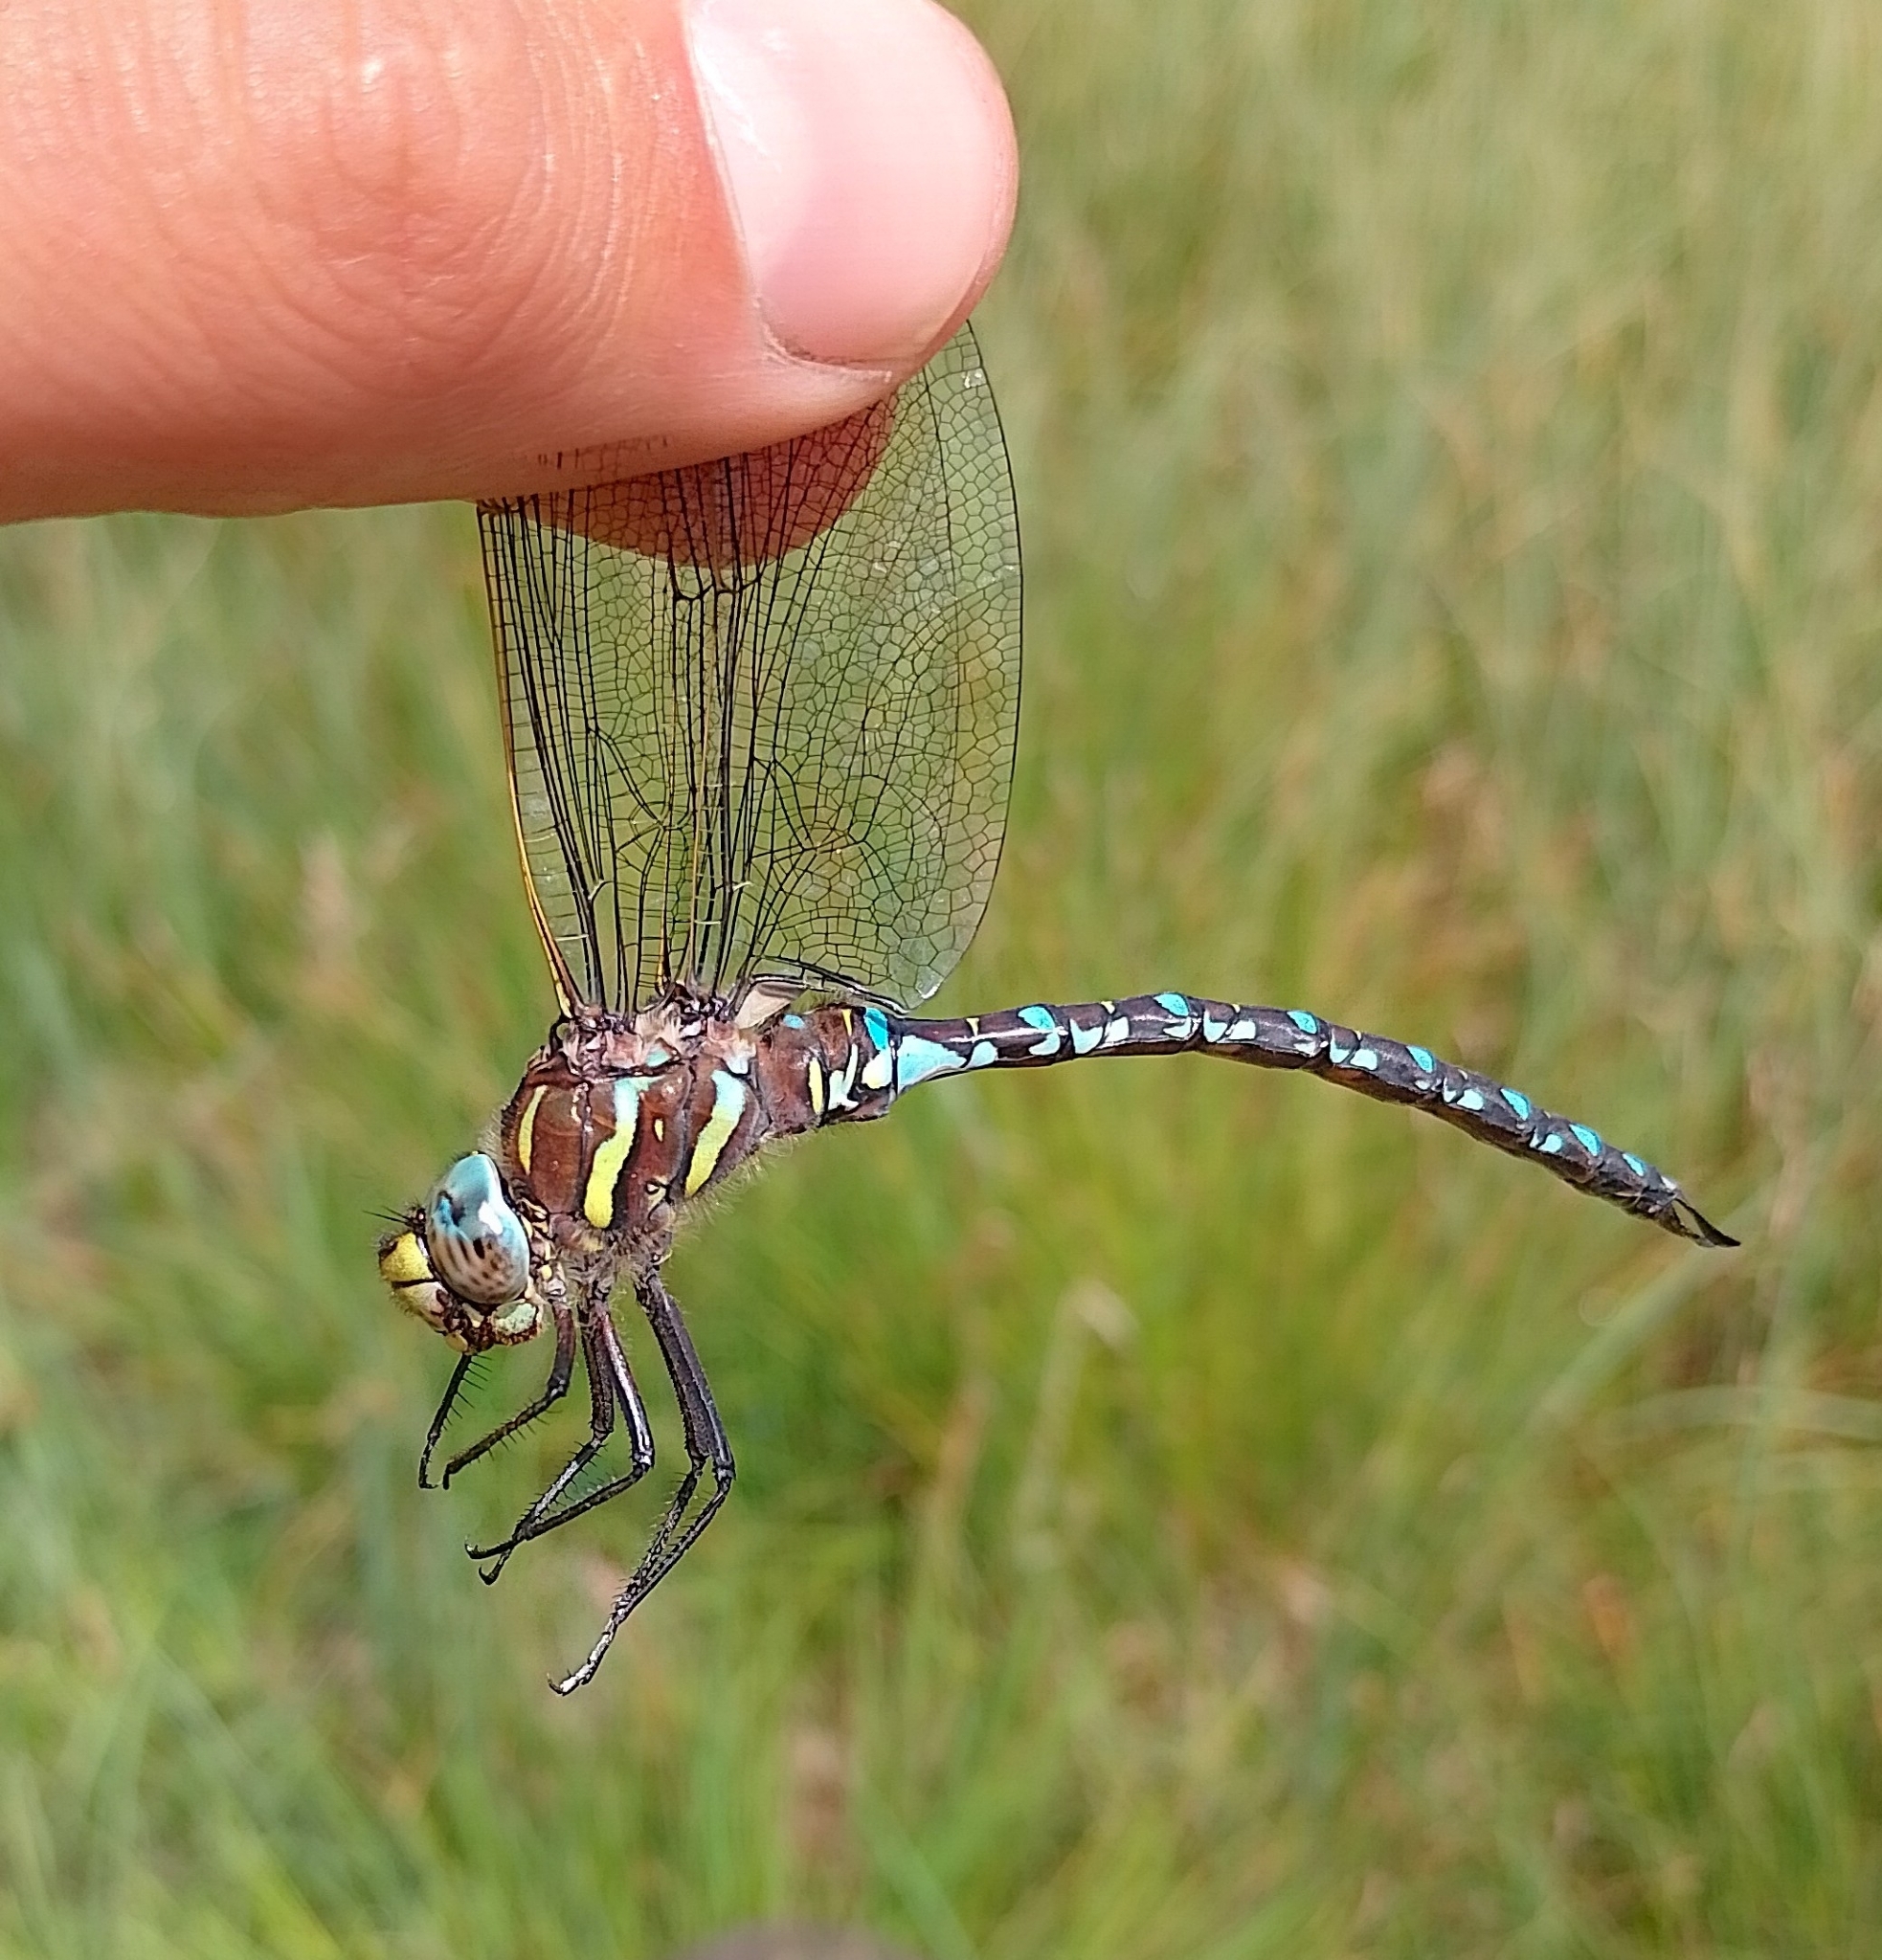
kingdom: Animalia
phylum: Arthropoda
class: Insecta
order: Odonata
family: Aeshnidae
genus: Aeshna
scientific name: Aeshna juncea
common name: Moorland hawker
